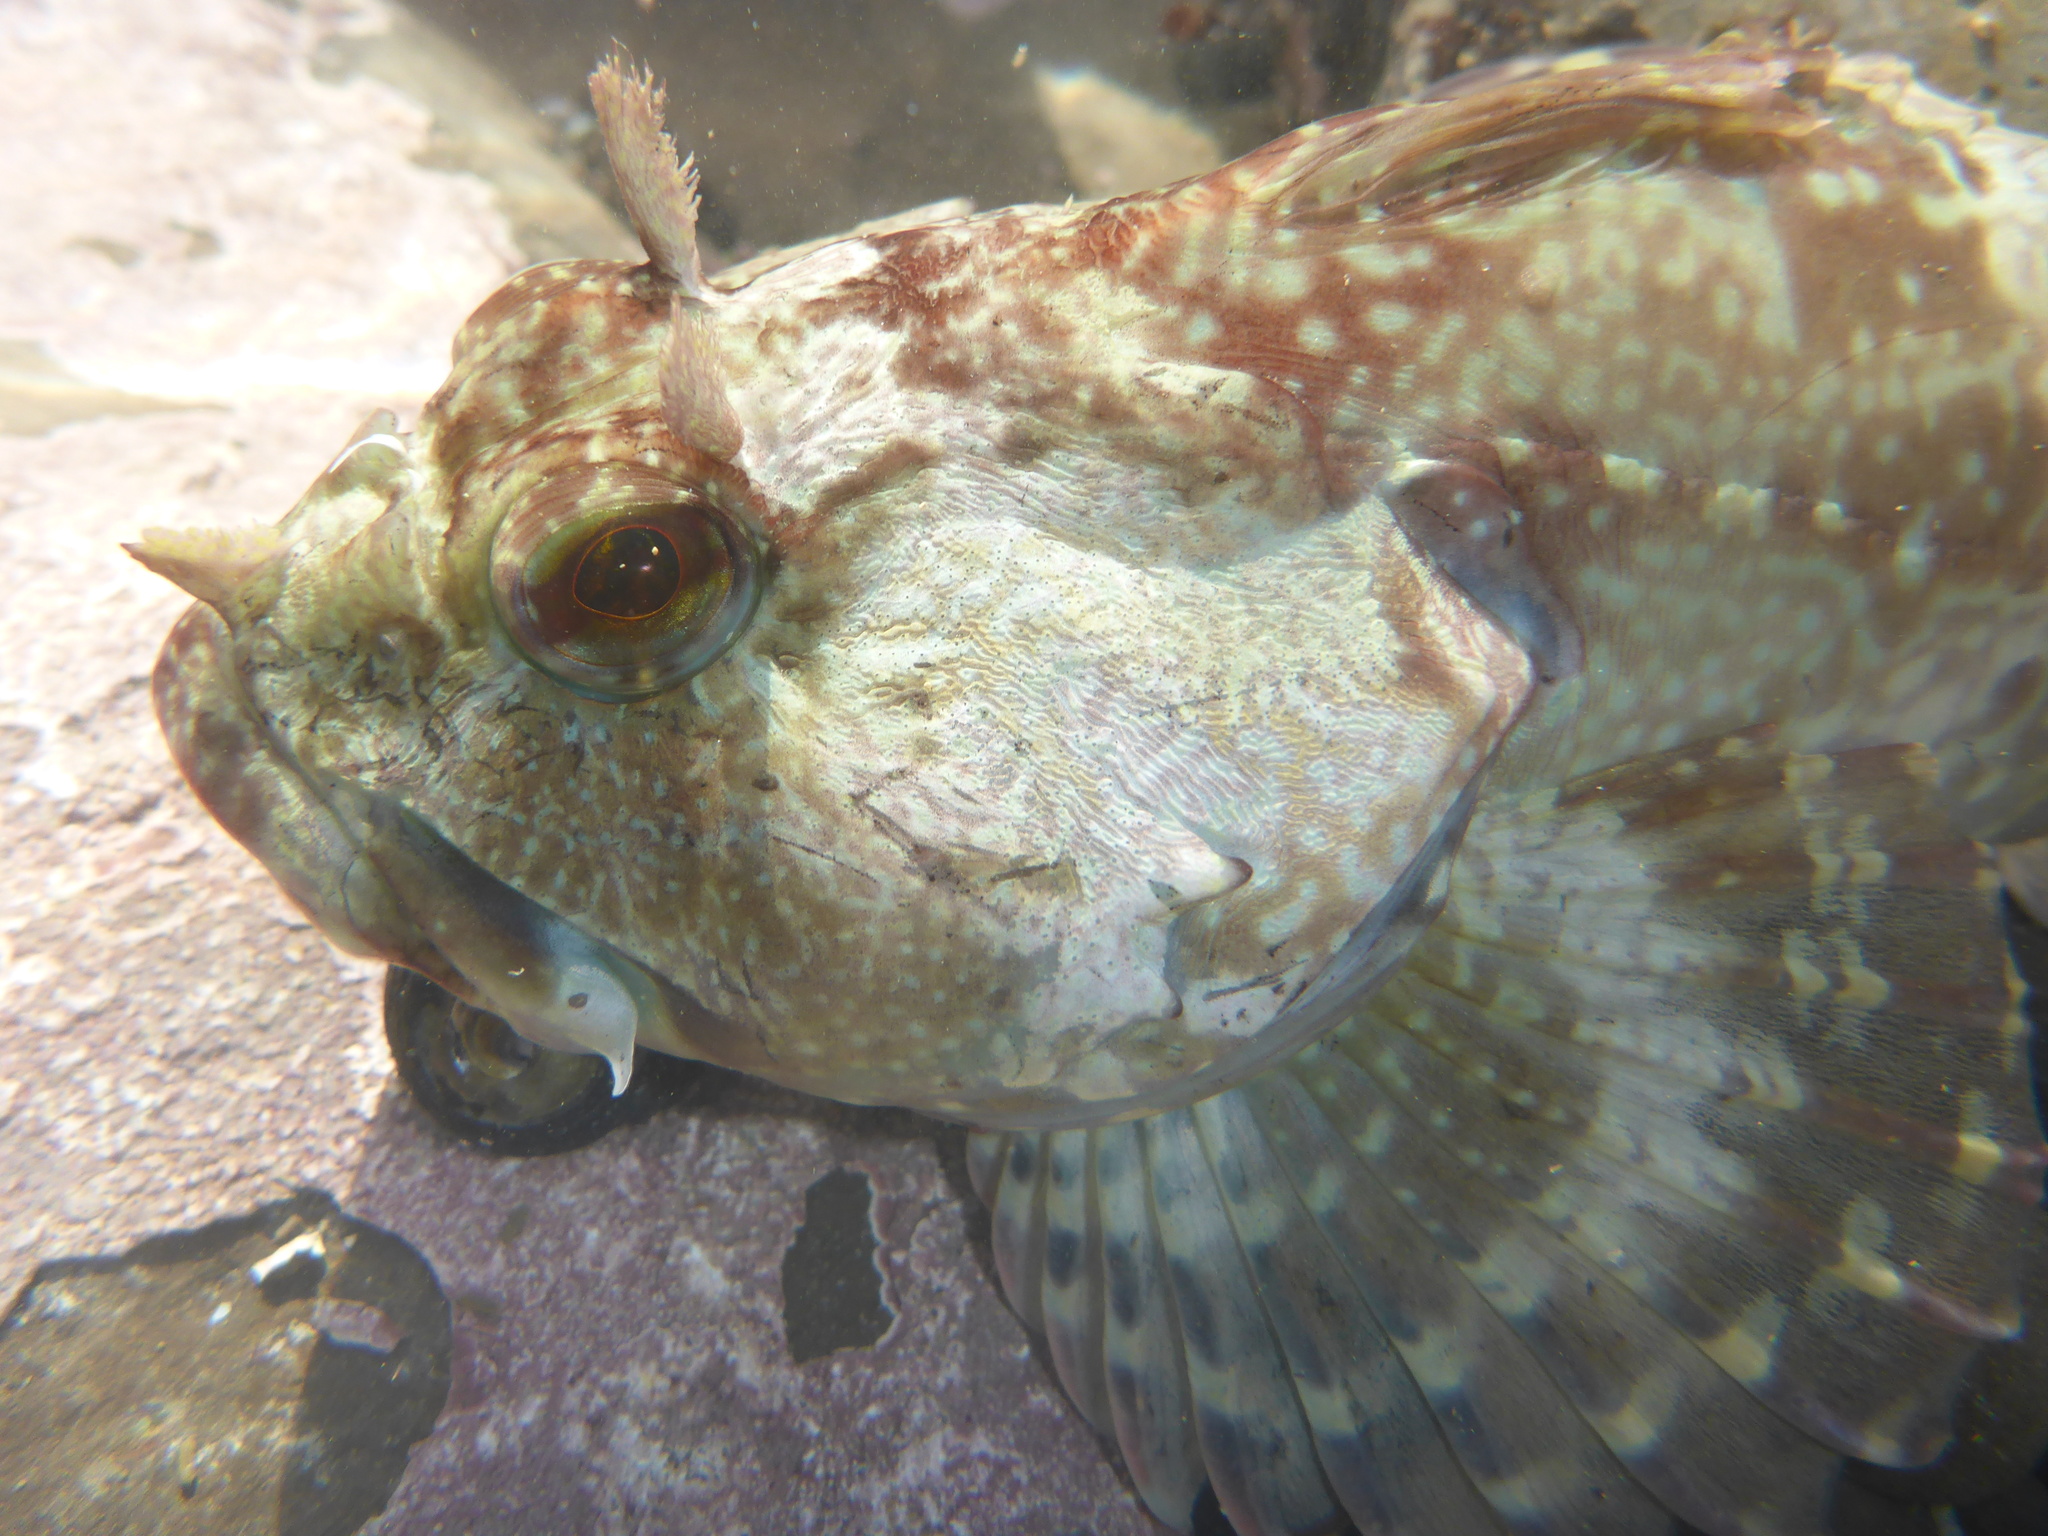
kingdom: Animalia
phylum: Chordata
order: Scorpaeniformes
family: Cottidae
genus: Scorpaenichthys
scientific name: Scorpaenichthys marmoratus
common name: Cabezon
